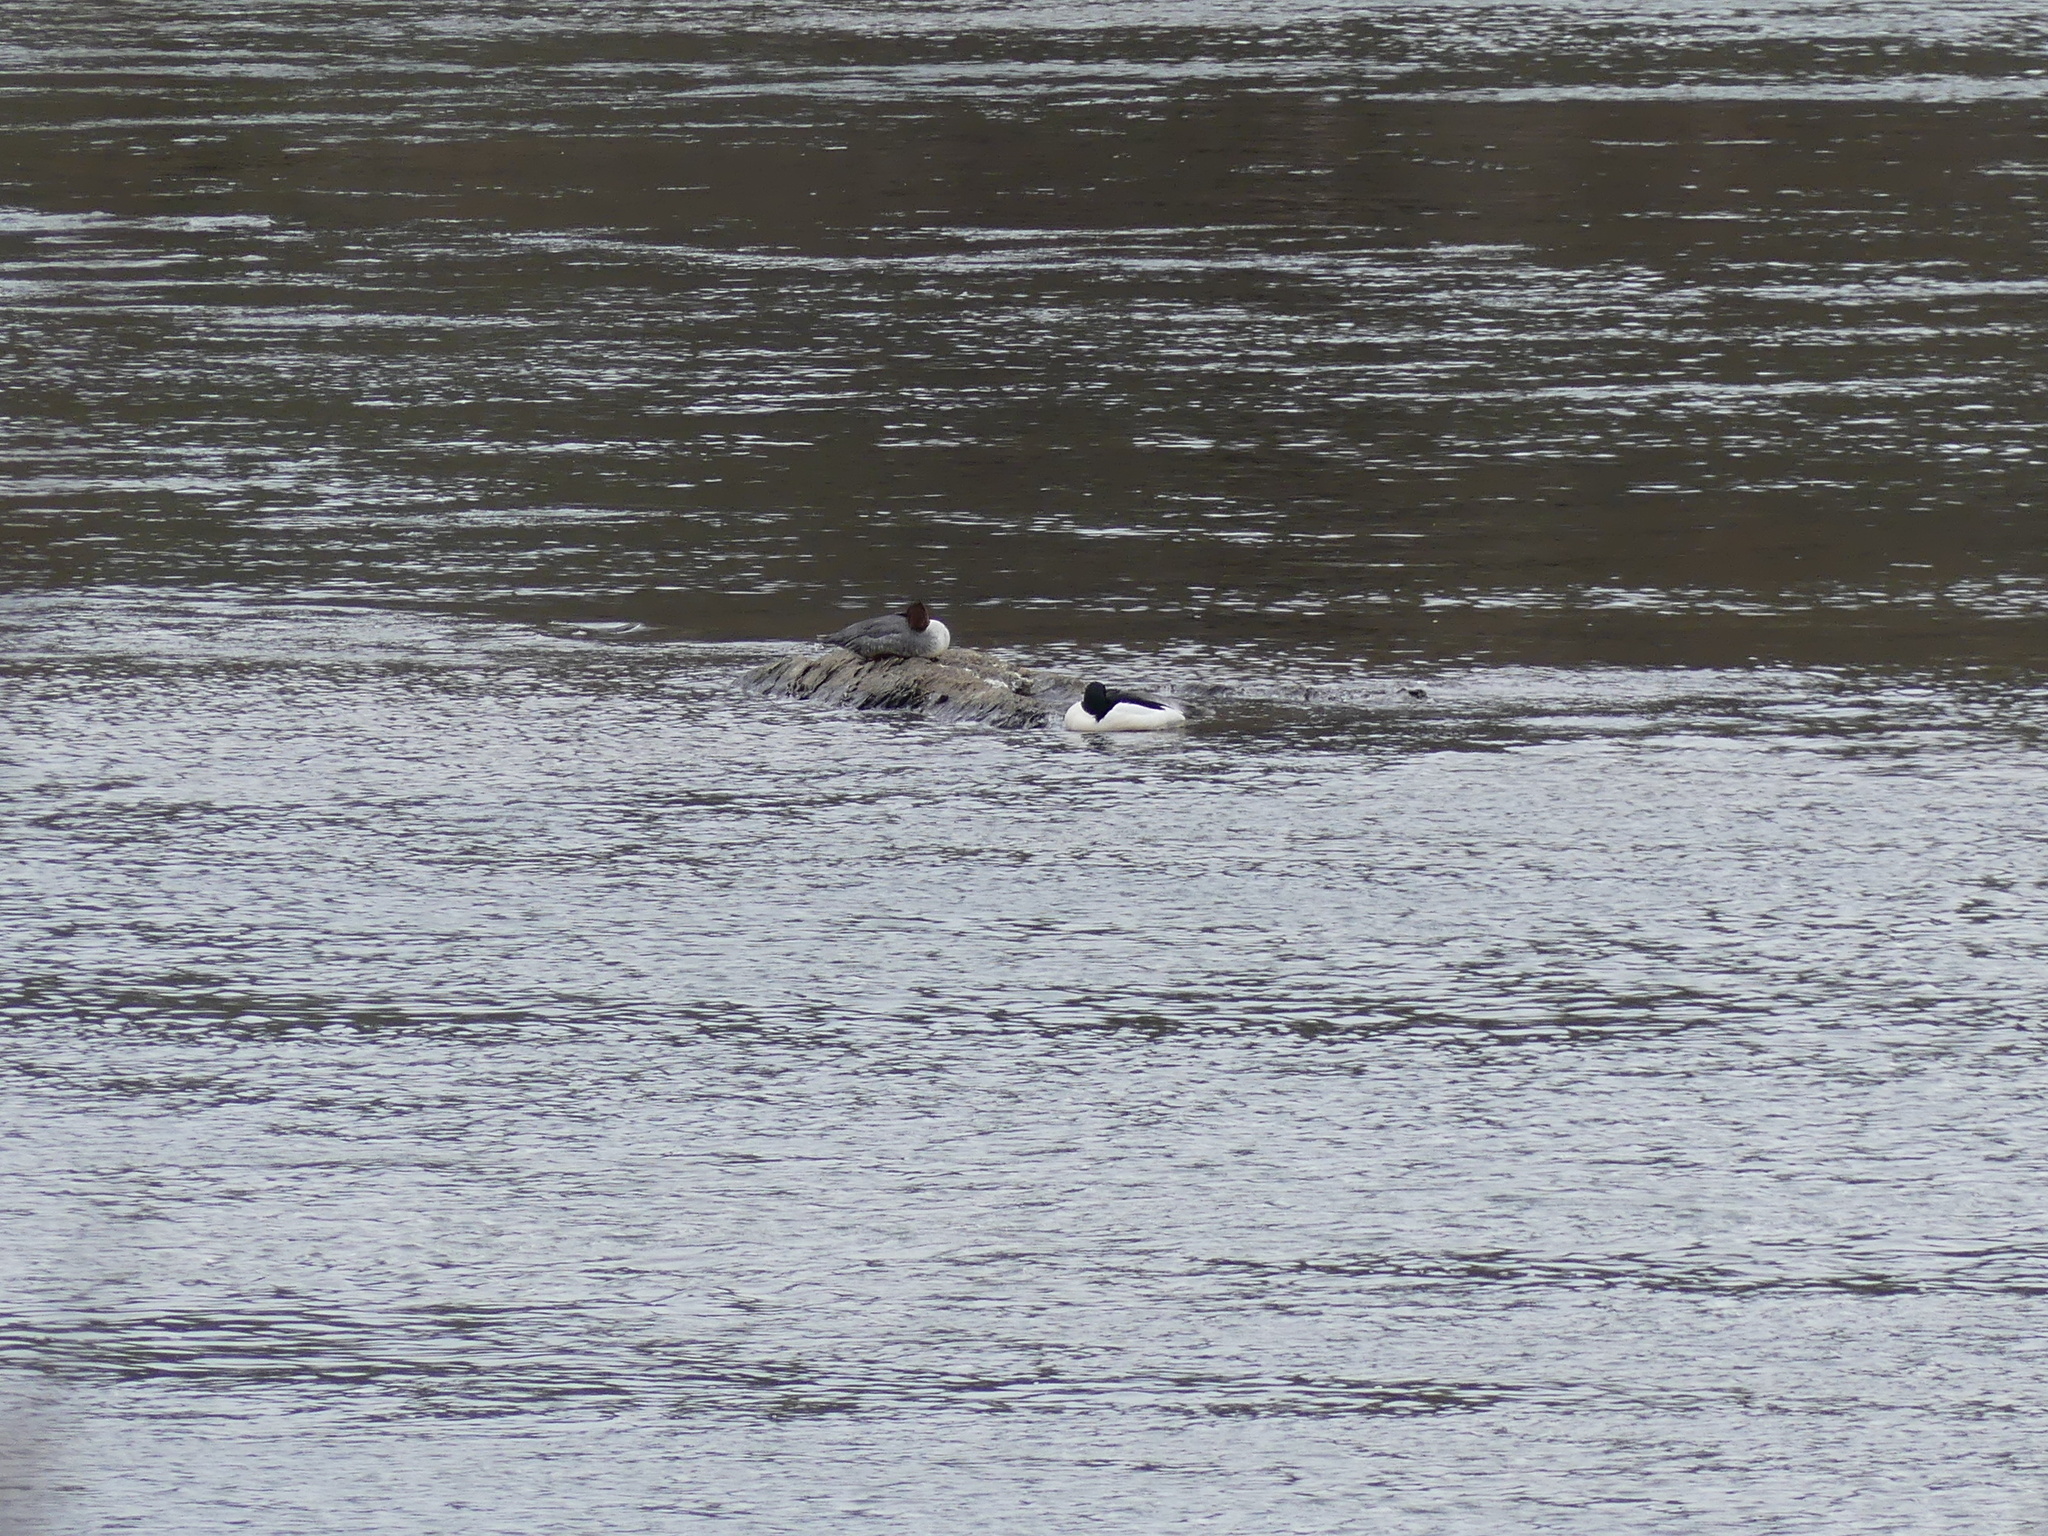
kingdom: Animalia
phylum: Chordata
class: Aves
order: Anseriformes
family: Anatidae
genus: Mergus
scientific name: Mergus merganser
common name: Common merganser
